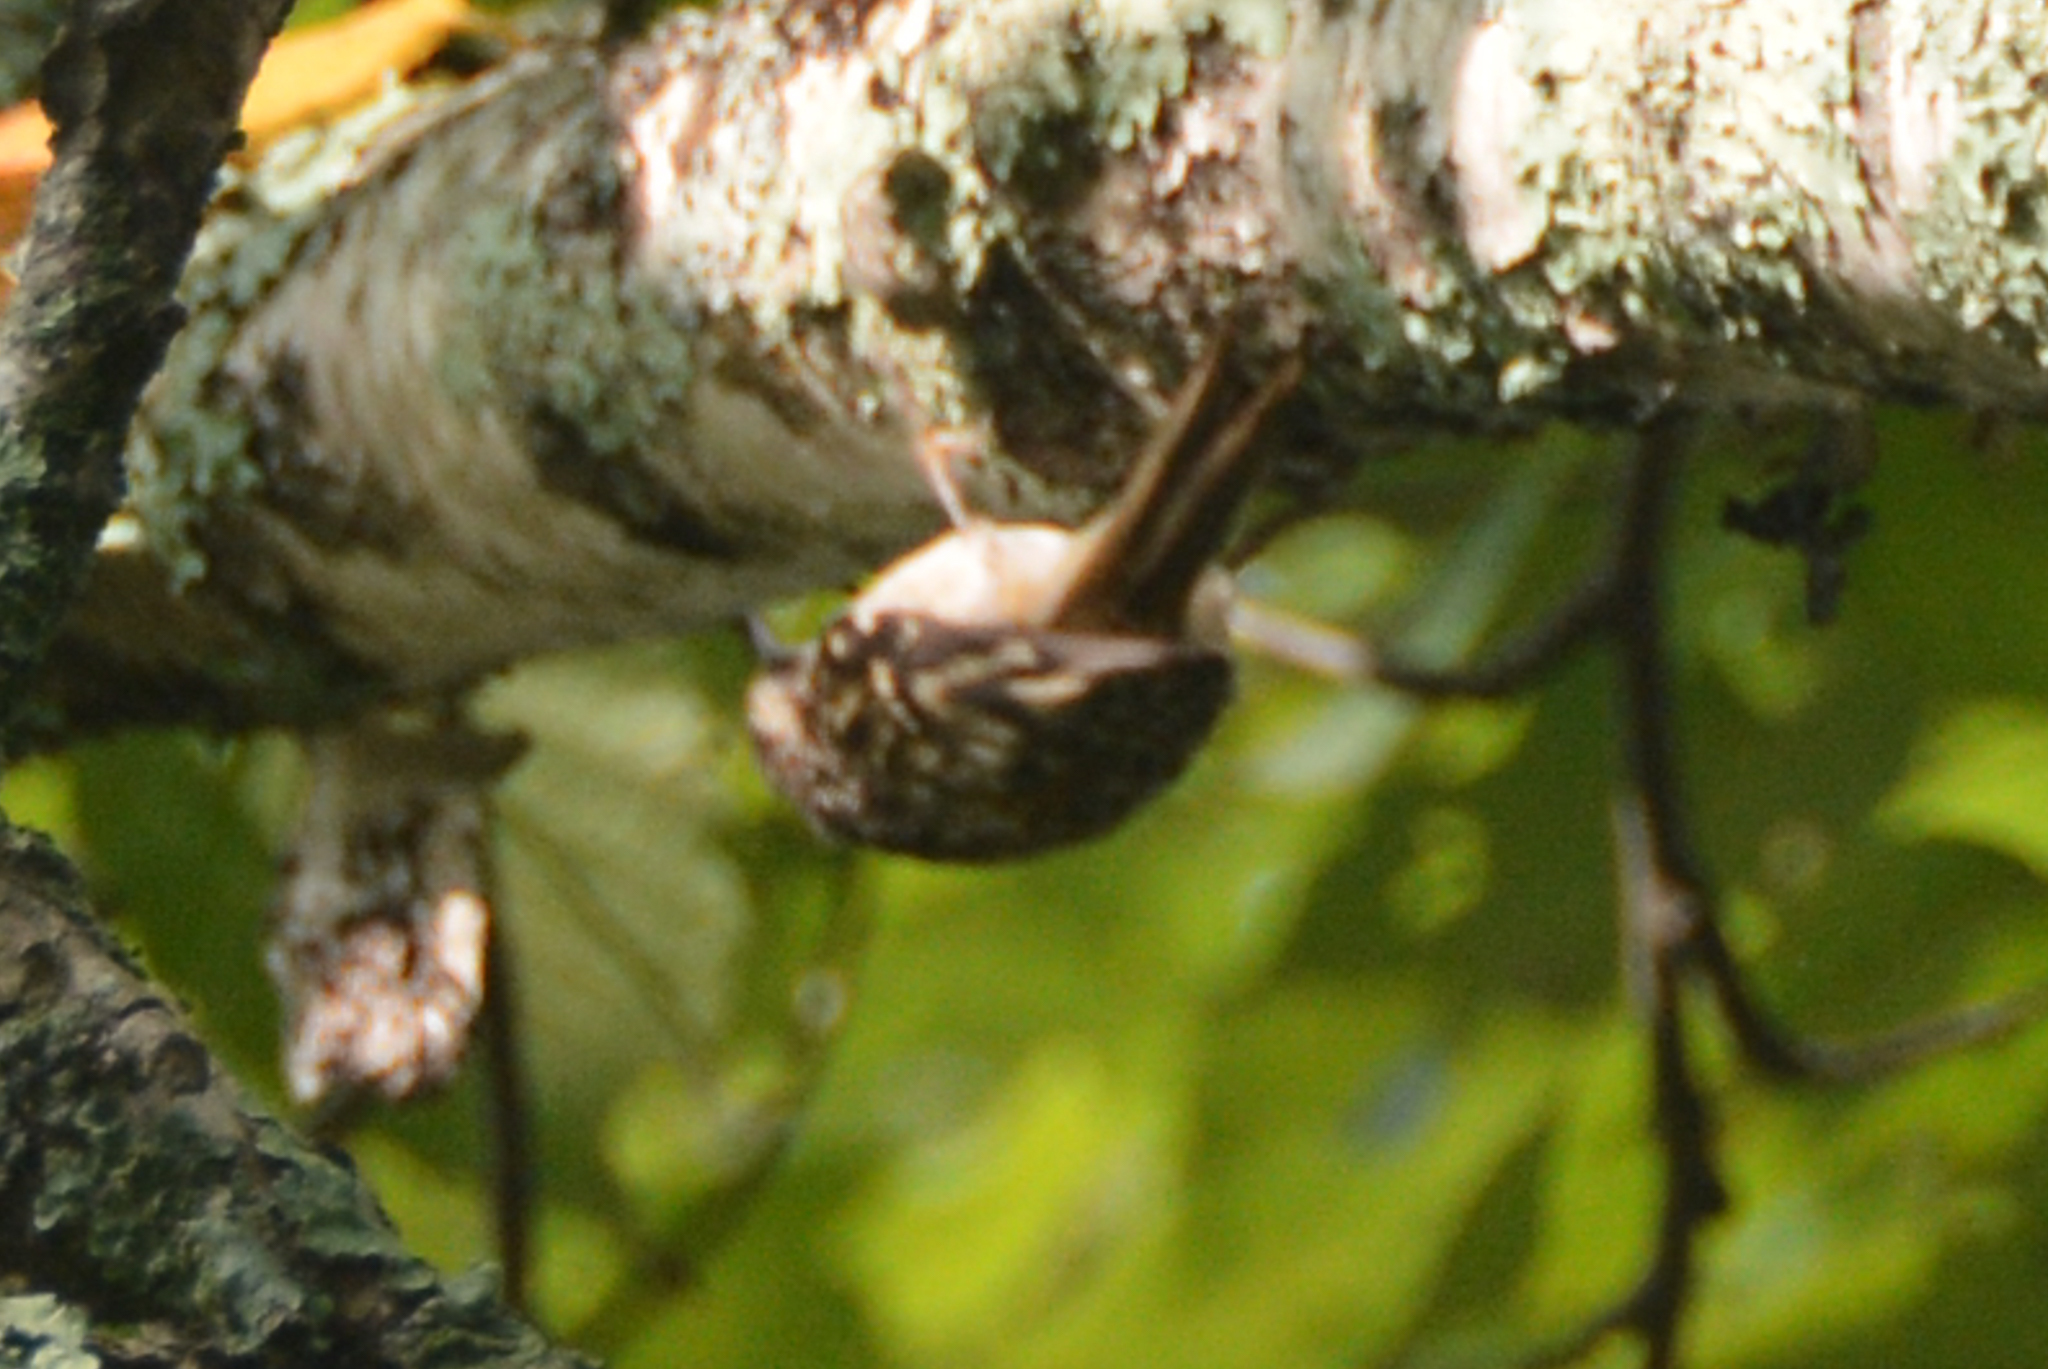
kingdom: Animalia
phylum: Chordata
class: Aves
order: Passeriformes
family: Certhiidae
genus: Certhia
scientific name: Certhia americana
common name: Brown creeper
